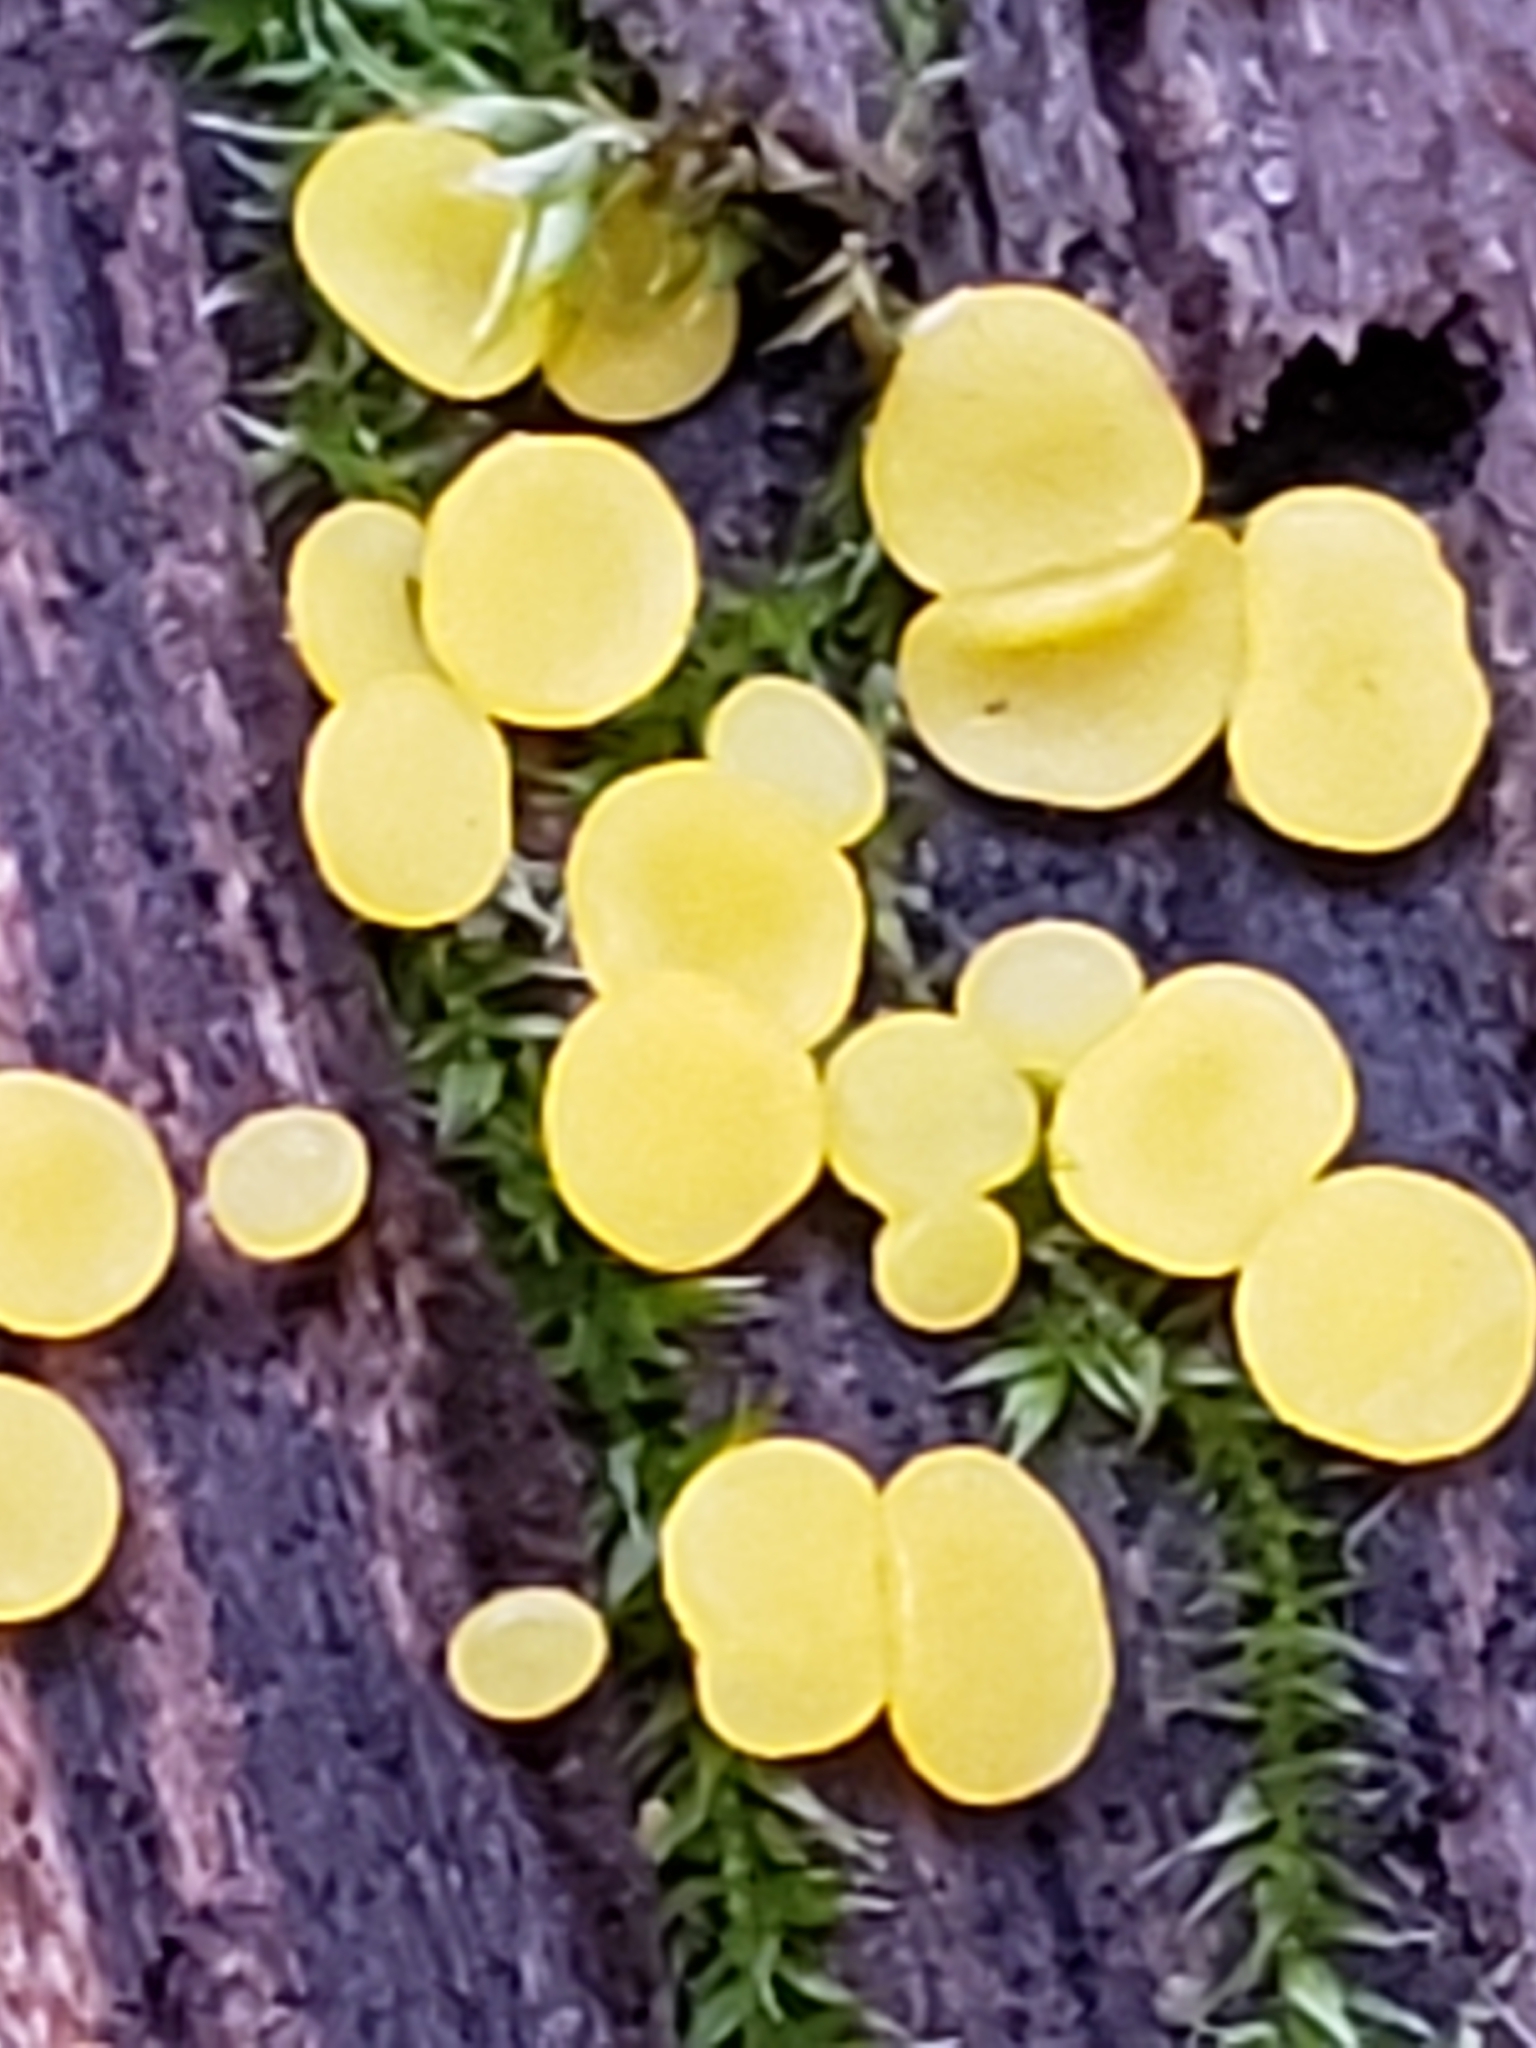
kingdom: Fungi
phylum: Ascomycota
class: Leotiomycetes
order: Helotiales
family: Pezizellaceae
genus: Calycina
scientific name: Calycina citrina
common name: Yellow fairy cups
